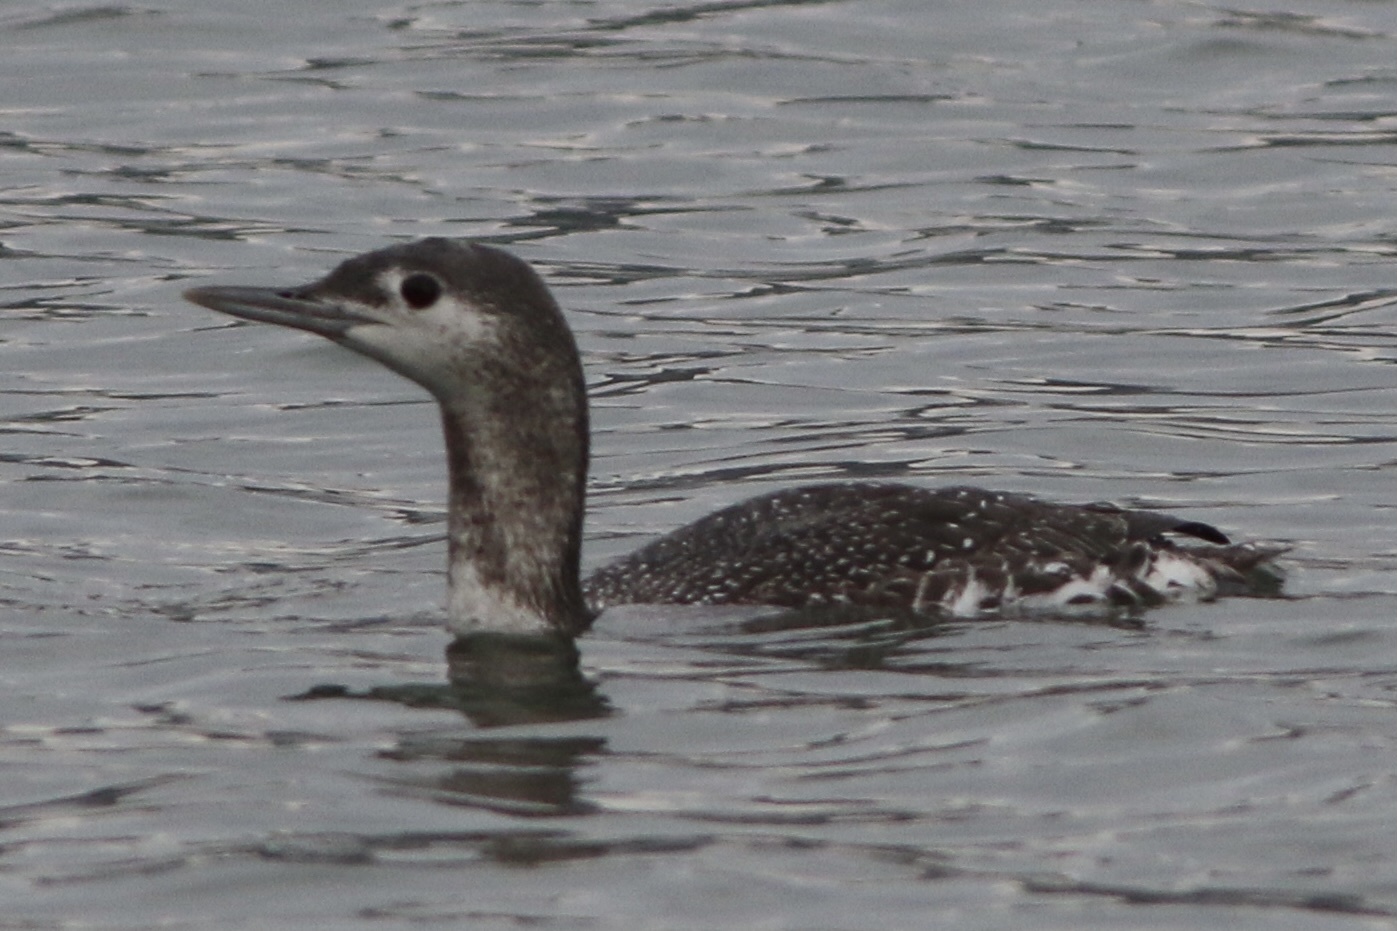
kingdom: Animalia
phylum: Chordata
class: Aves
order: Gaviiformes
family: Gaviidae
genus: Gavia
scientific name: Gavia stellata
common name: Red-throated loon
